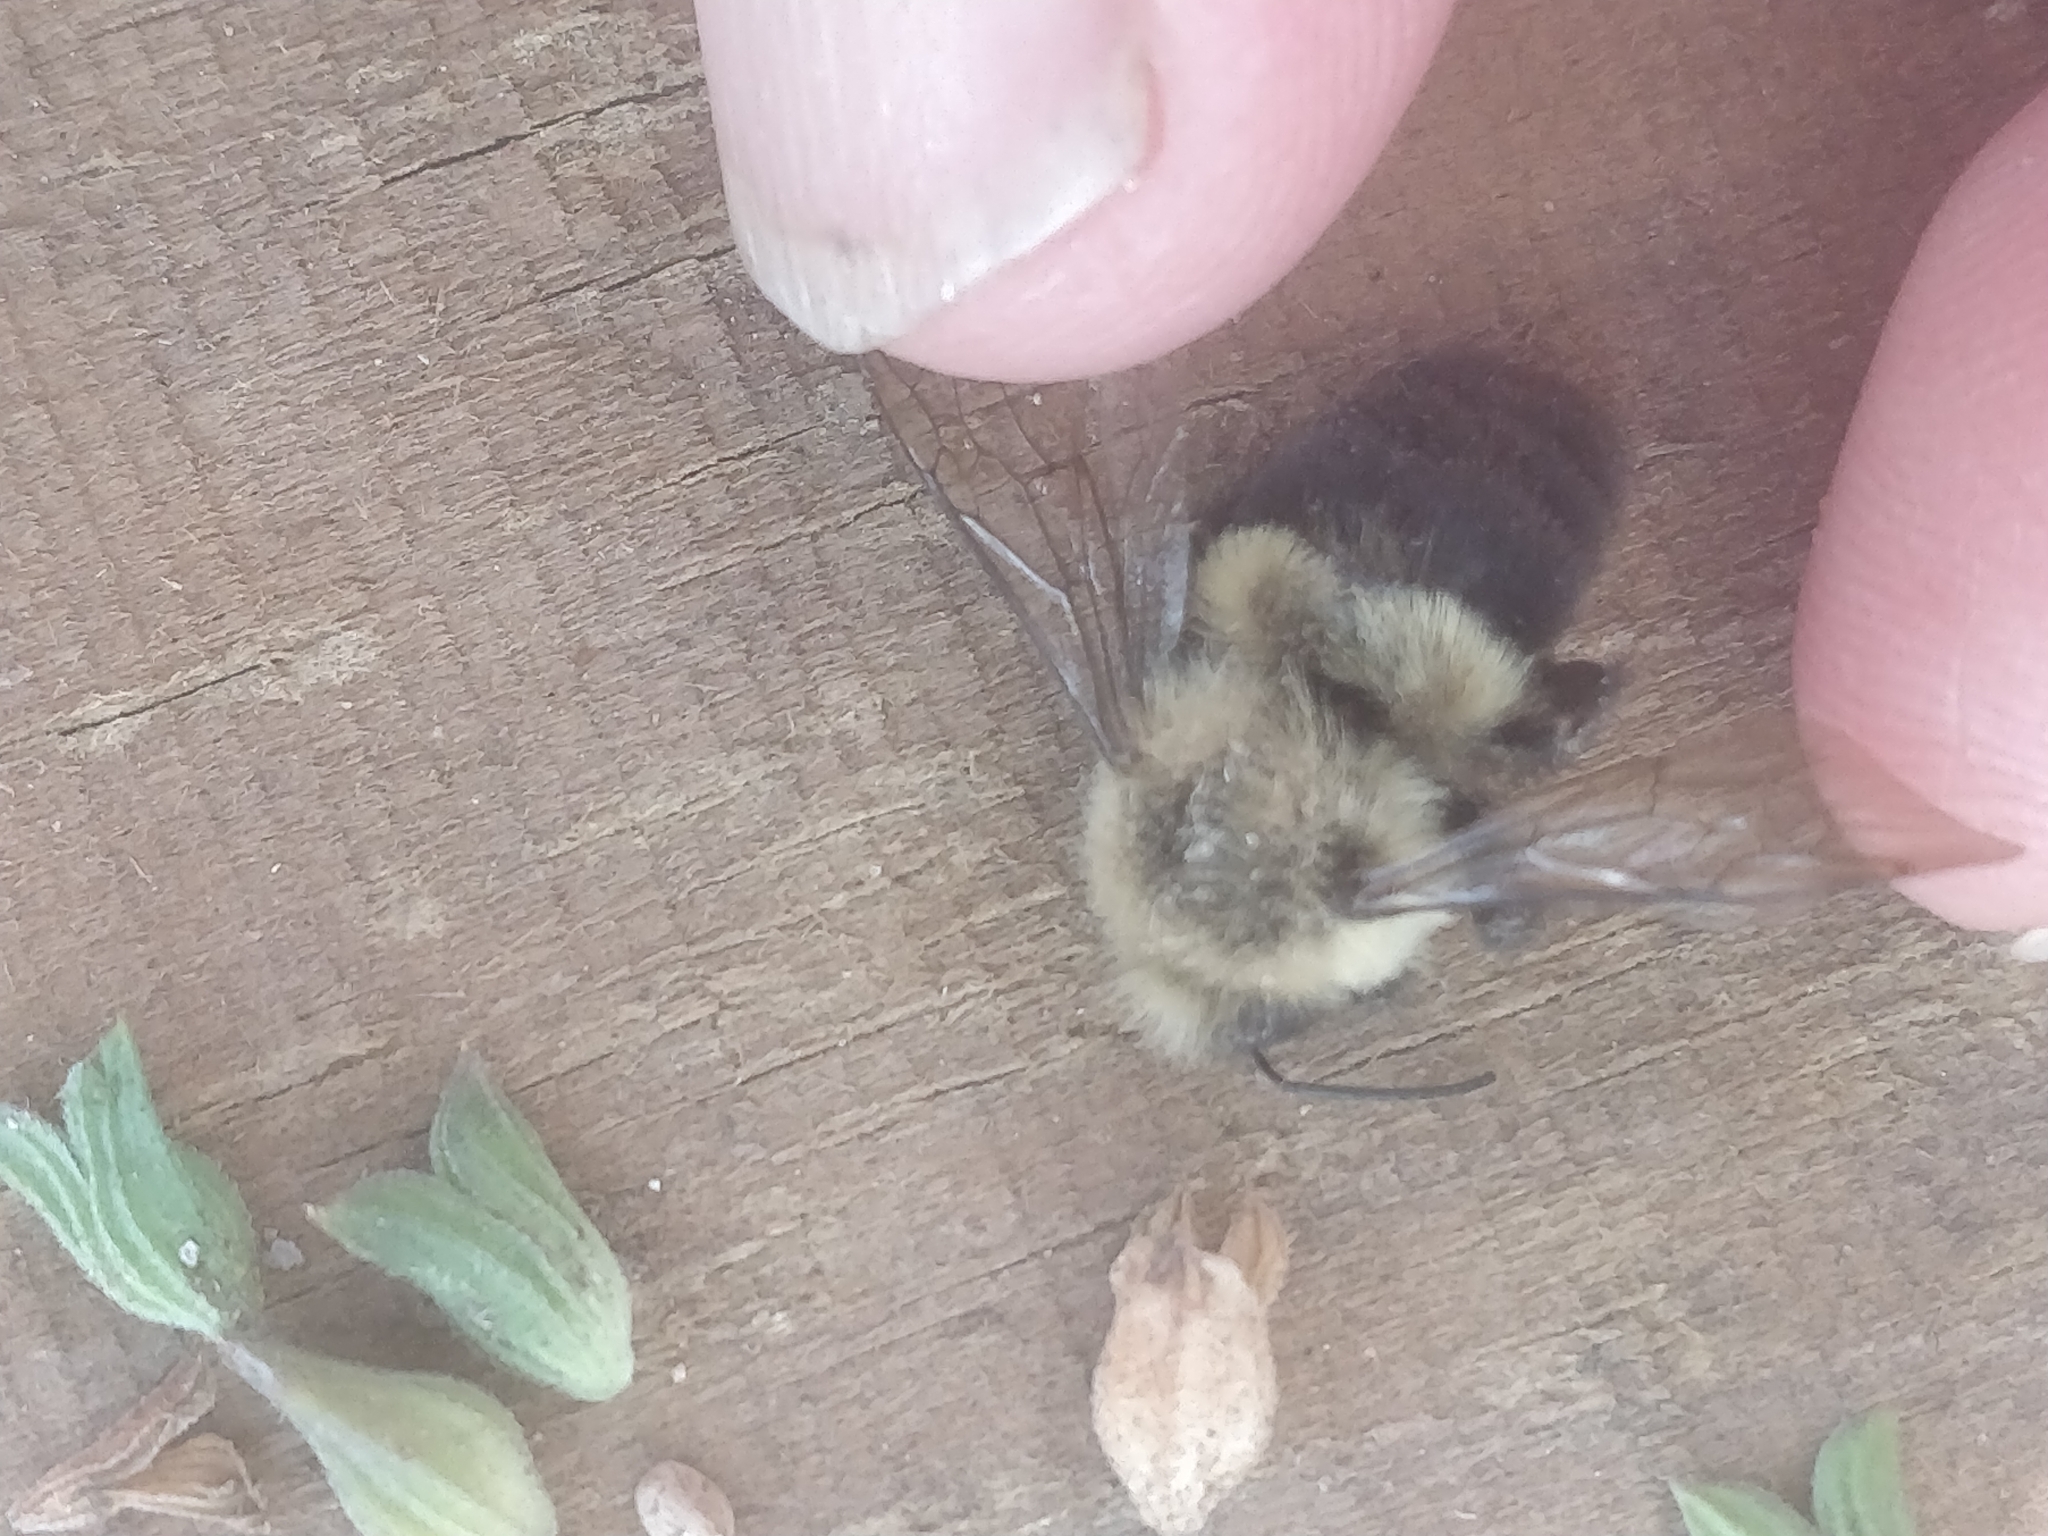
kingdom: Animalia
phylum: Arthropoda
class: Insecta
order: Hymenoptera
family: Apidae
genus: Bombus
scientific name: Bombus impatiens
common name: Common eastern bumble bee
